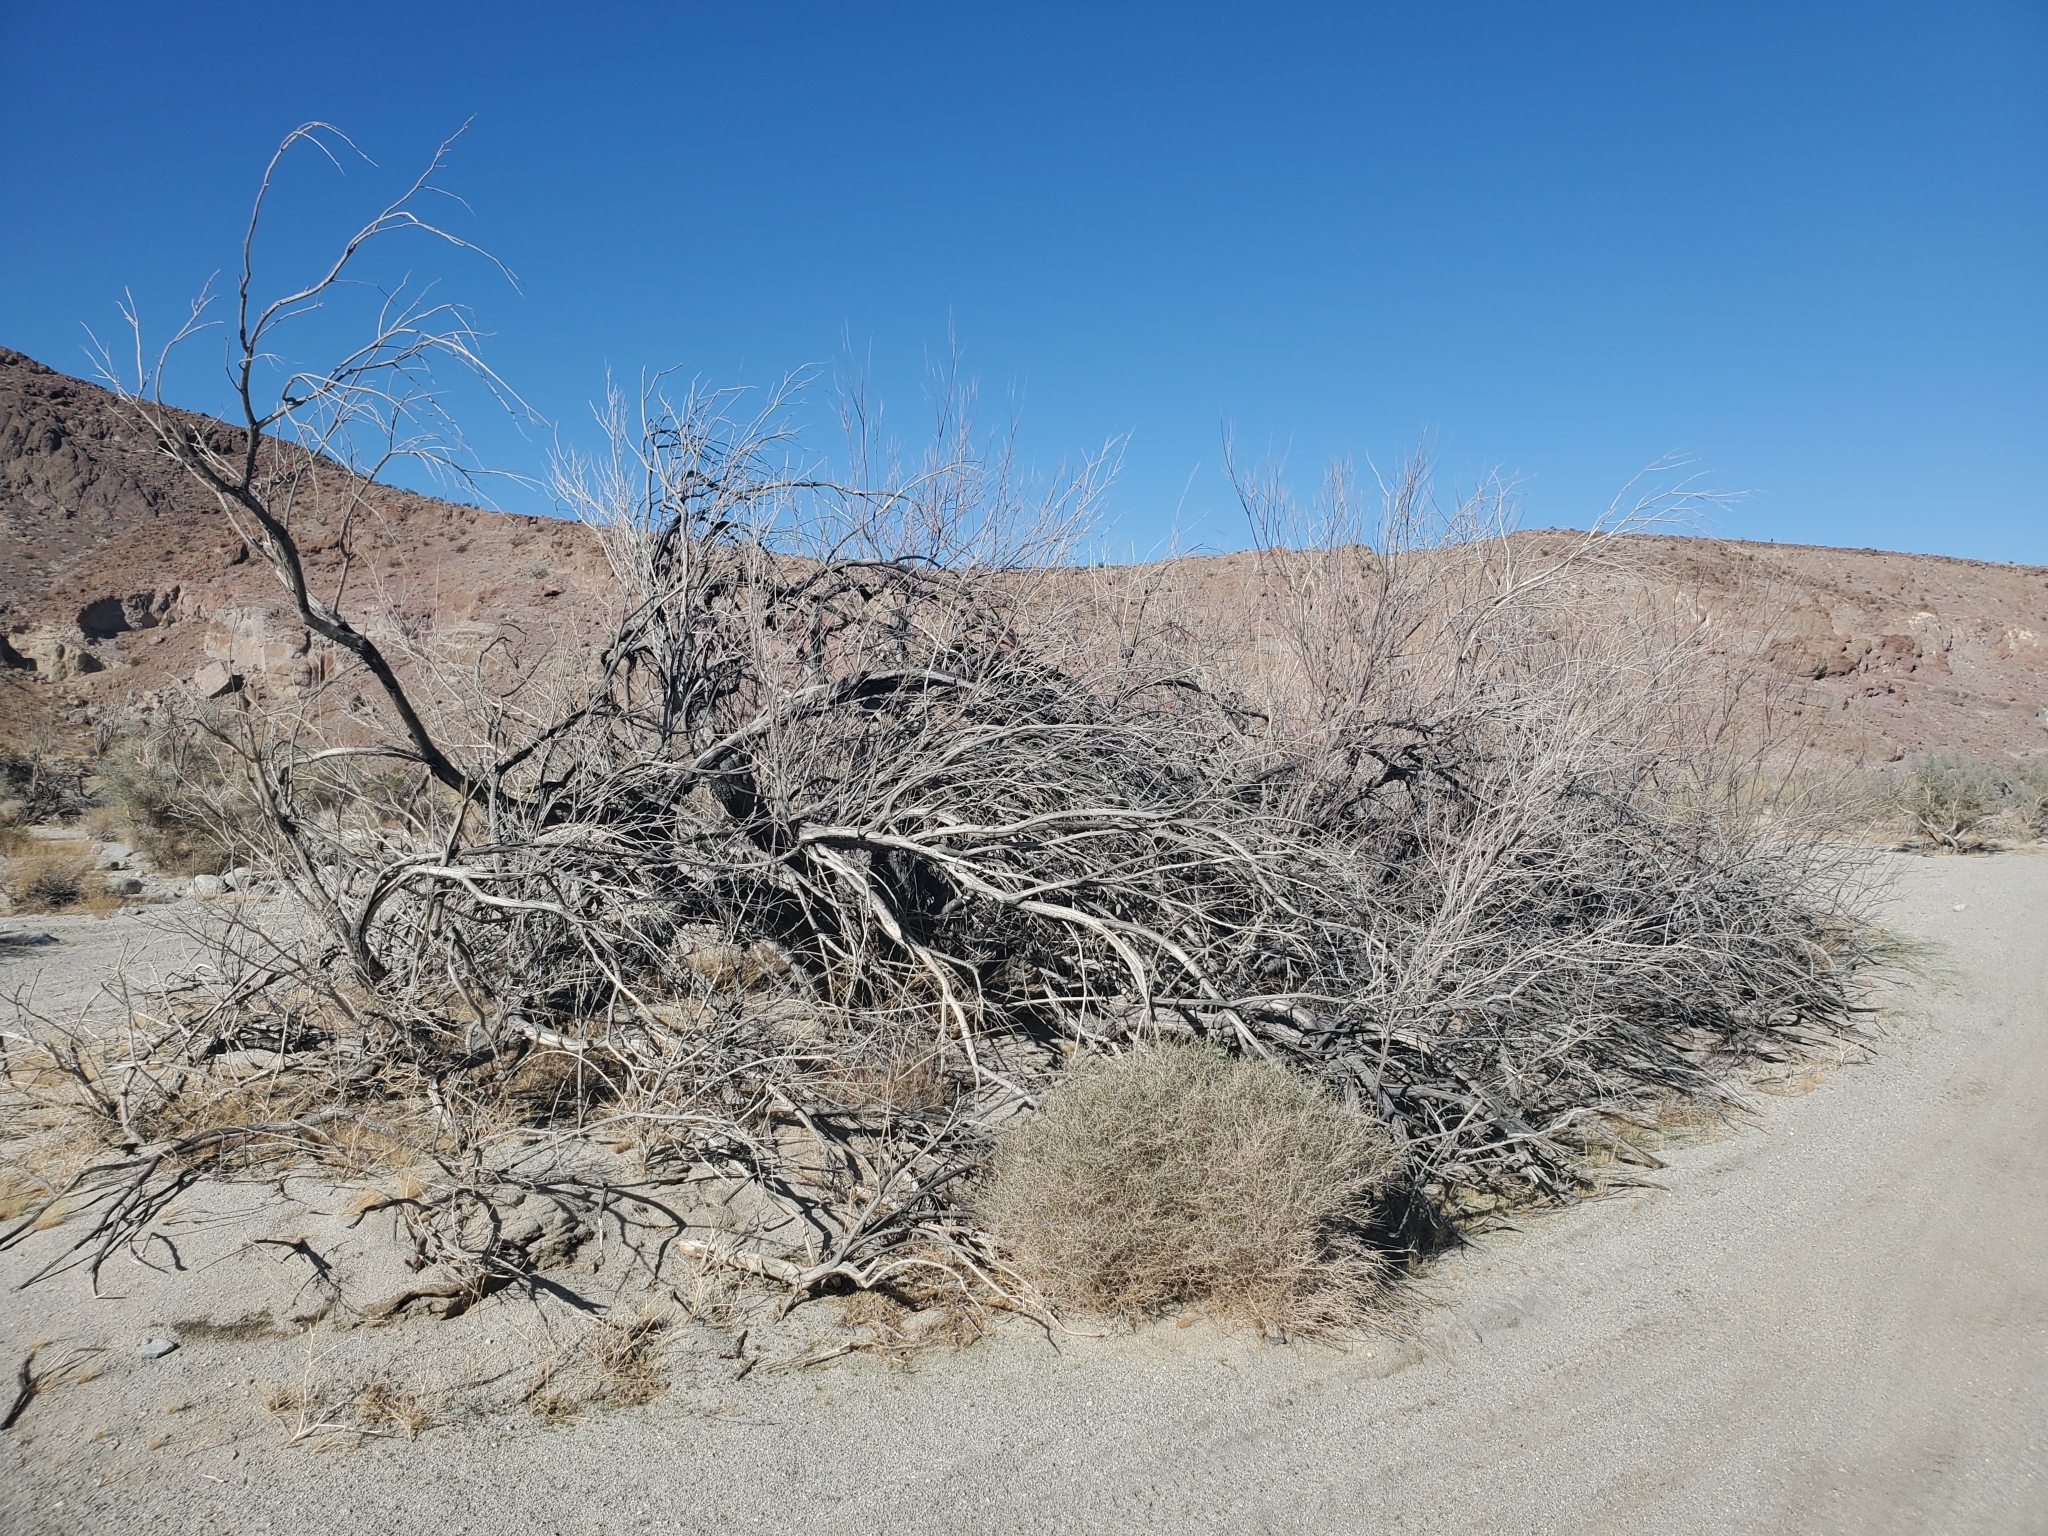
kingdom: Plantae
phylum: Tracheophyta
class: Magnoliopsida
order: Lamiales
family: Bignoniaceae
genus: Chilopsis
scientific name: Chilopsis linearis
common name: Desert-willow
